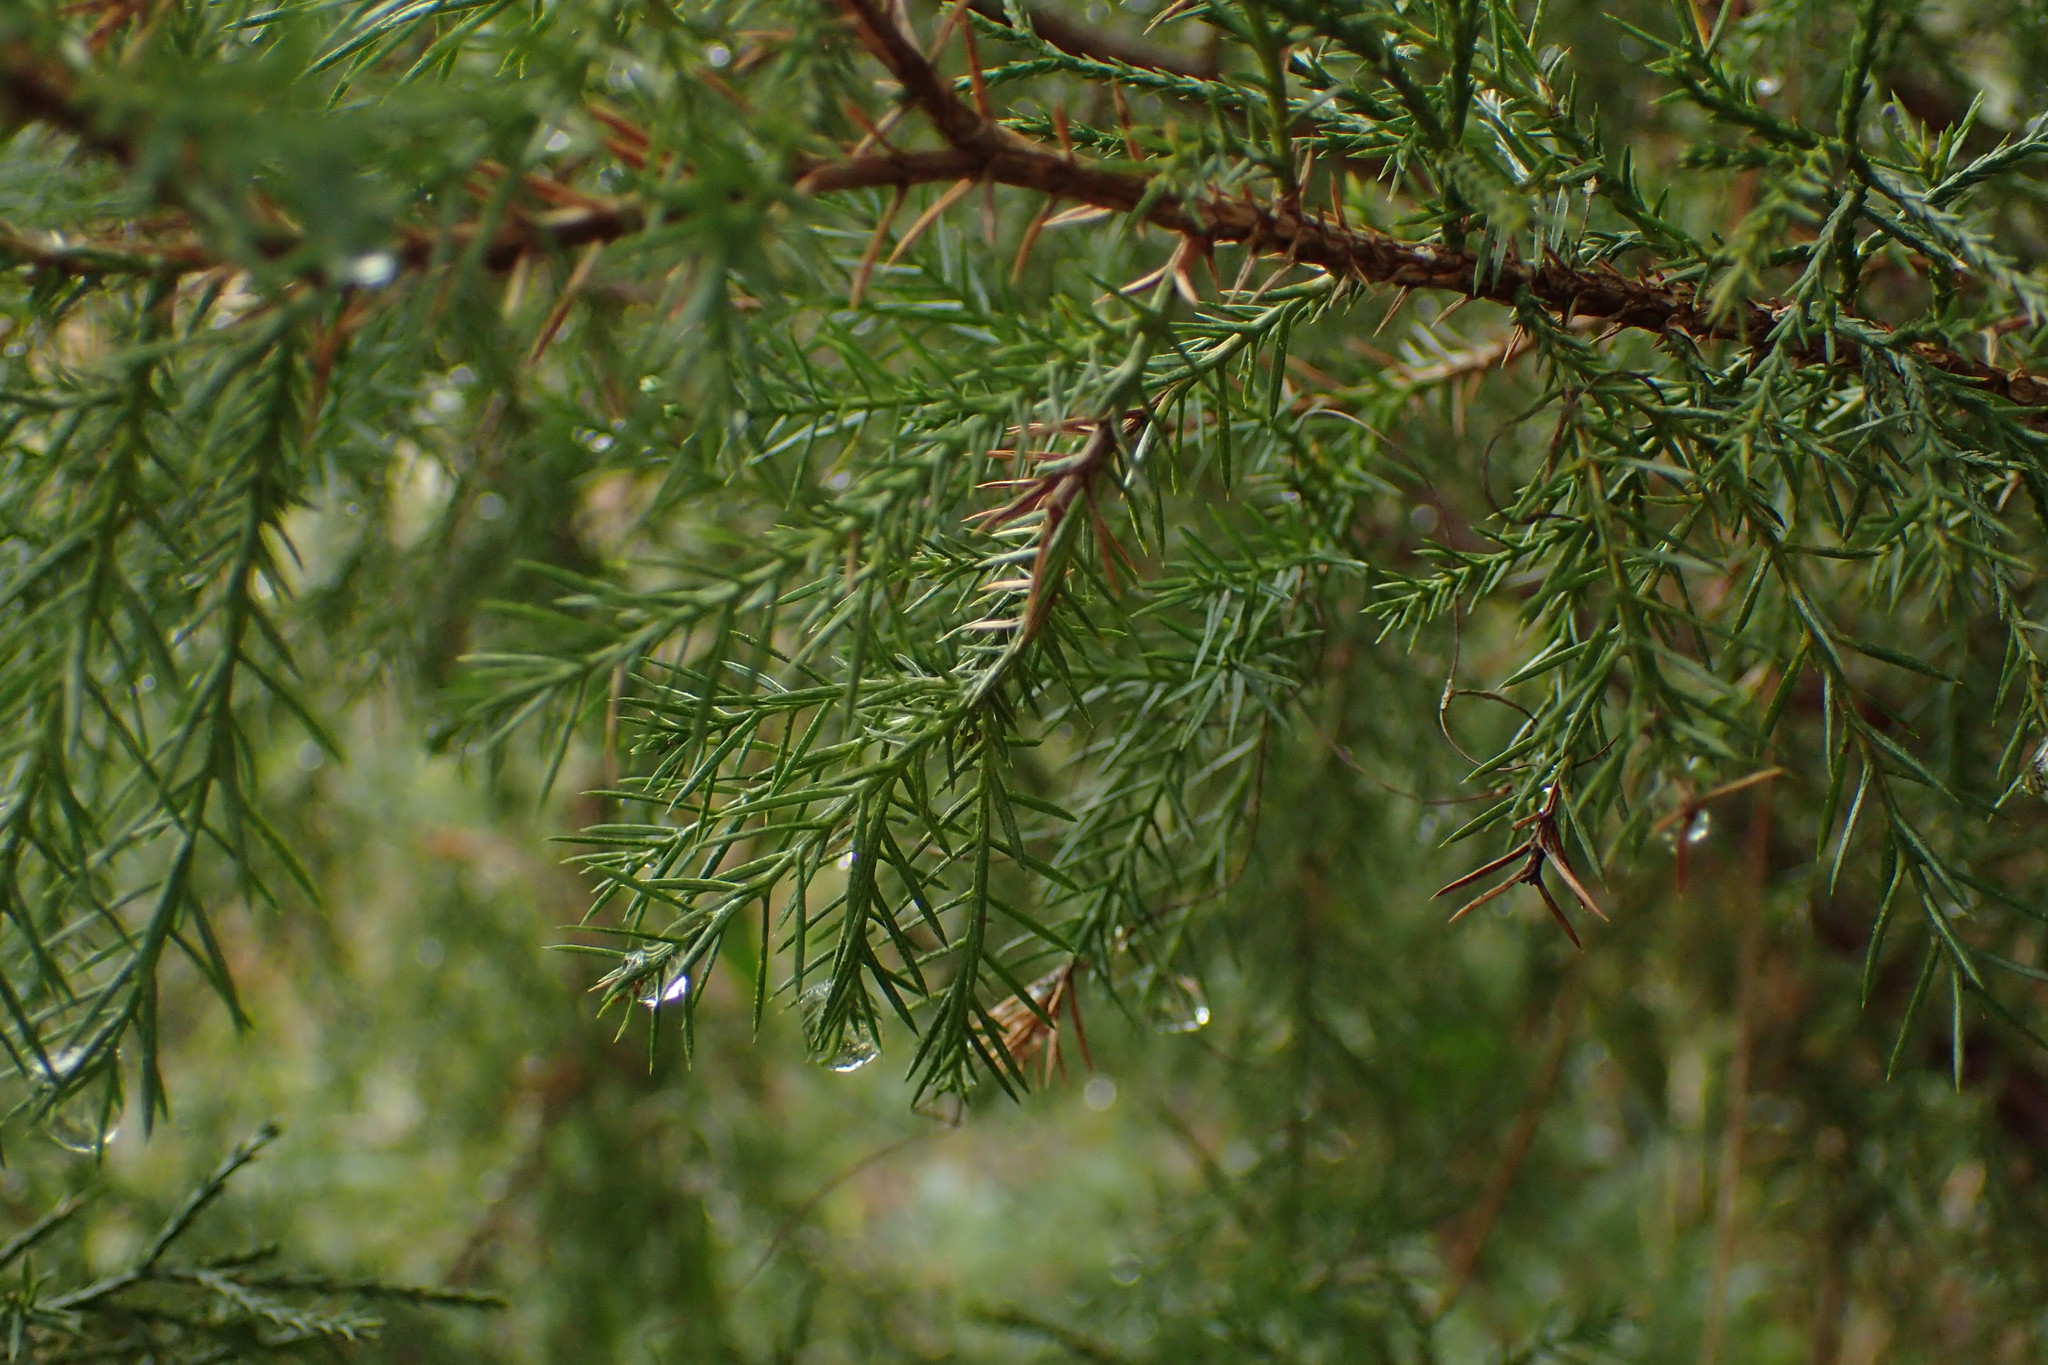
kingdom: Plantae
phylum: Tracheophyta
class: Pinopsida
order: Pinales
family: Cupressaceae
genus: Juniperus
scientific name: Juniperus virginiana
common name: Red juniper
